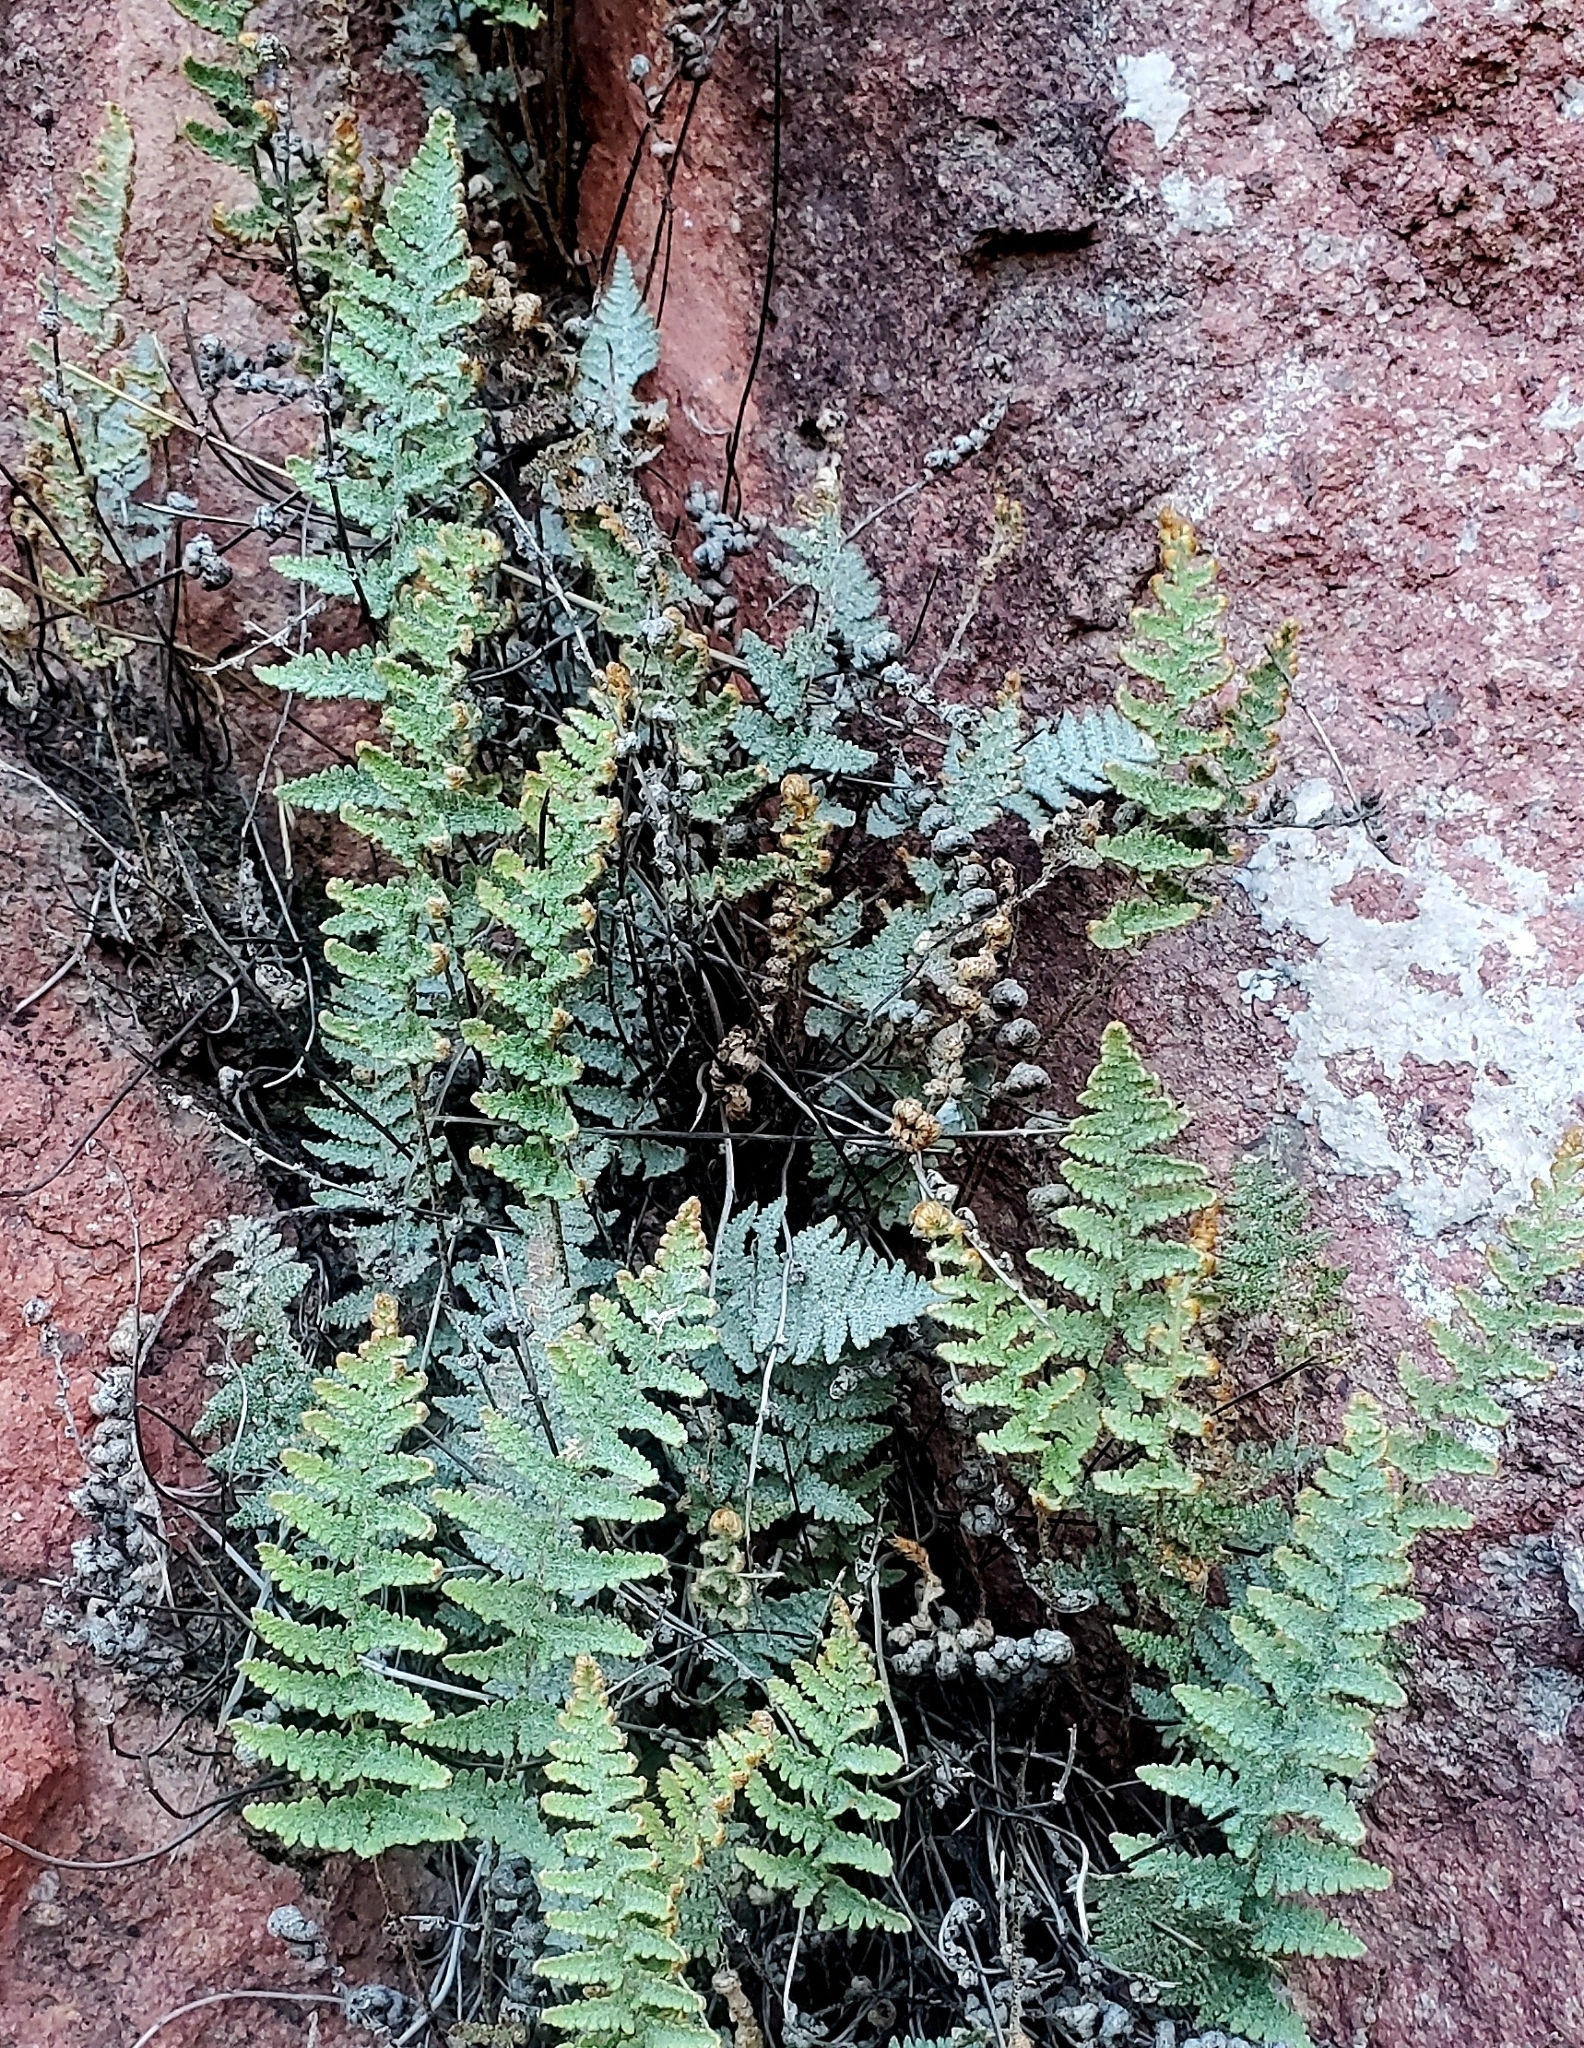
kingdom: Plantae
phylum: Tracheophyta
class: Polypodiopsida
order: Polypodiales
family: Pteridaceae
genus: Myriopteris
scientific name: Myriopteris lindheimeri
